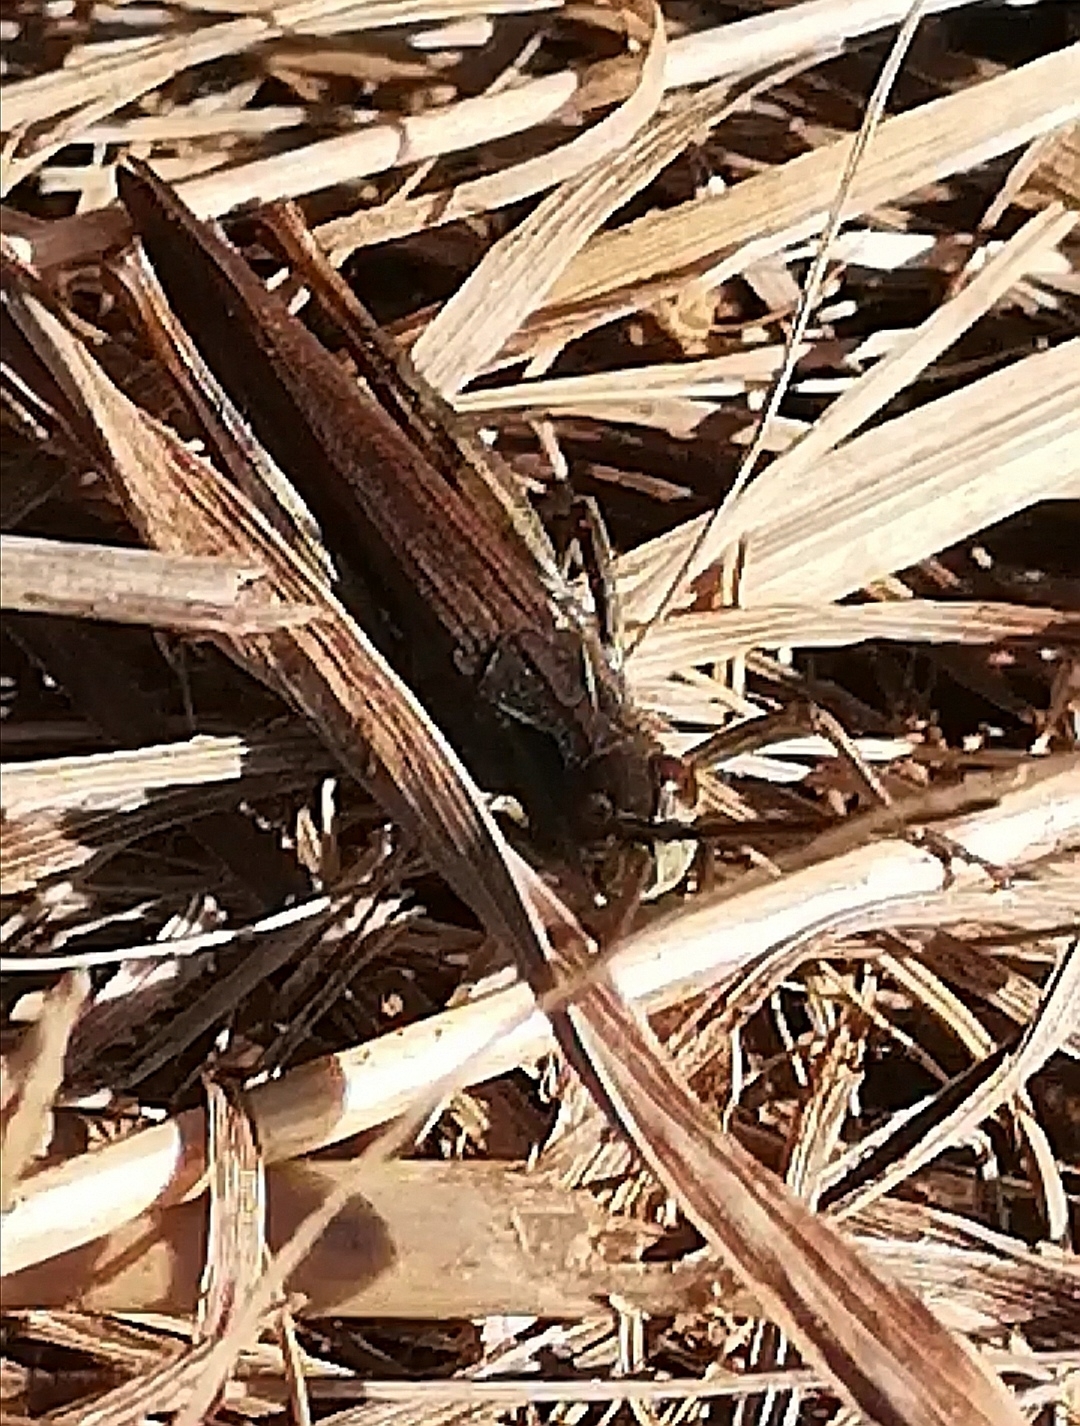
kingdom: Animalia
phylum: Arthropoda
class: Insecta
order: Orthoptera
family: Acrididae
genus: Chorthippus
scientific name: Chorthippus biguttulus
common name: Bow-winged grasshopper
